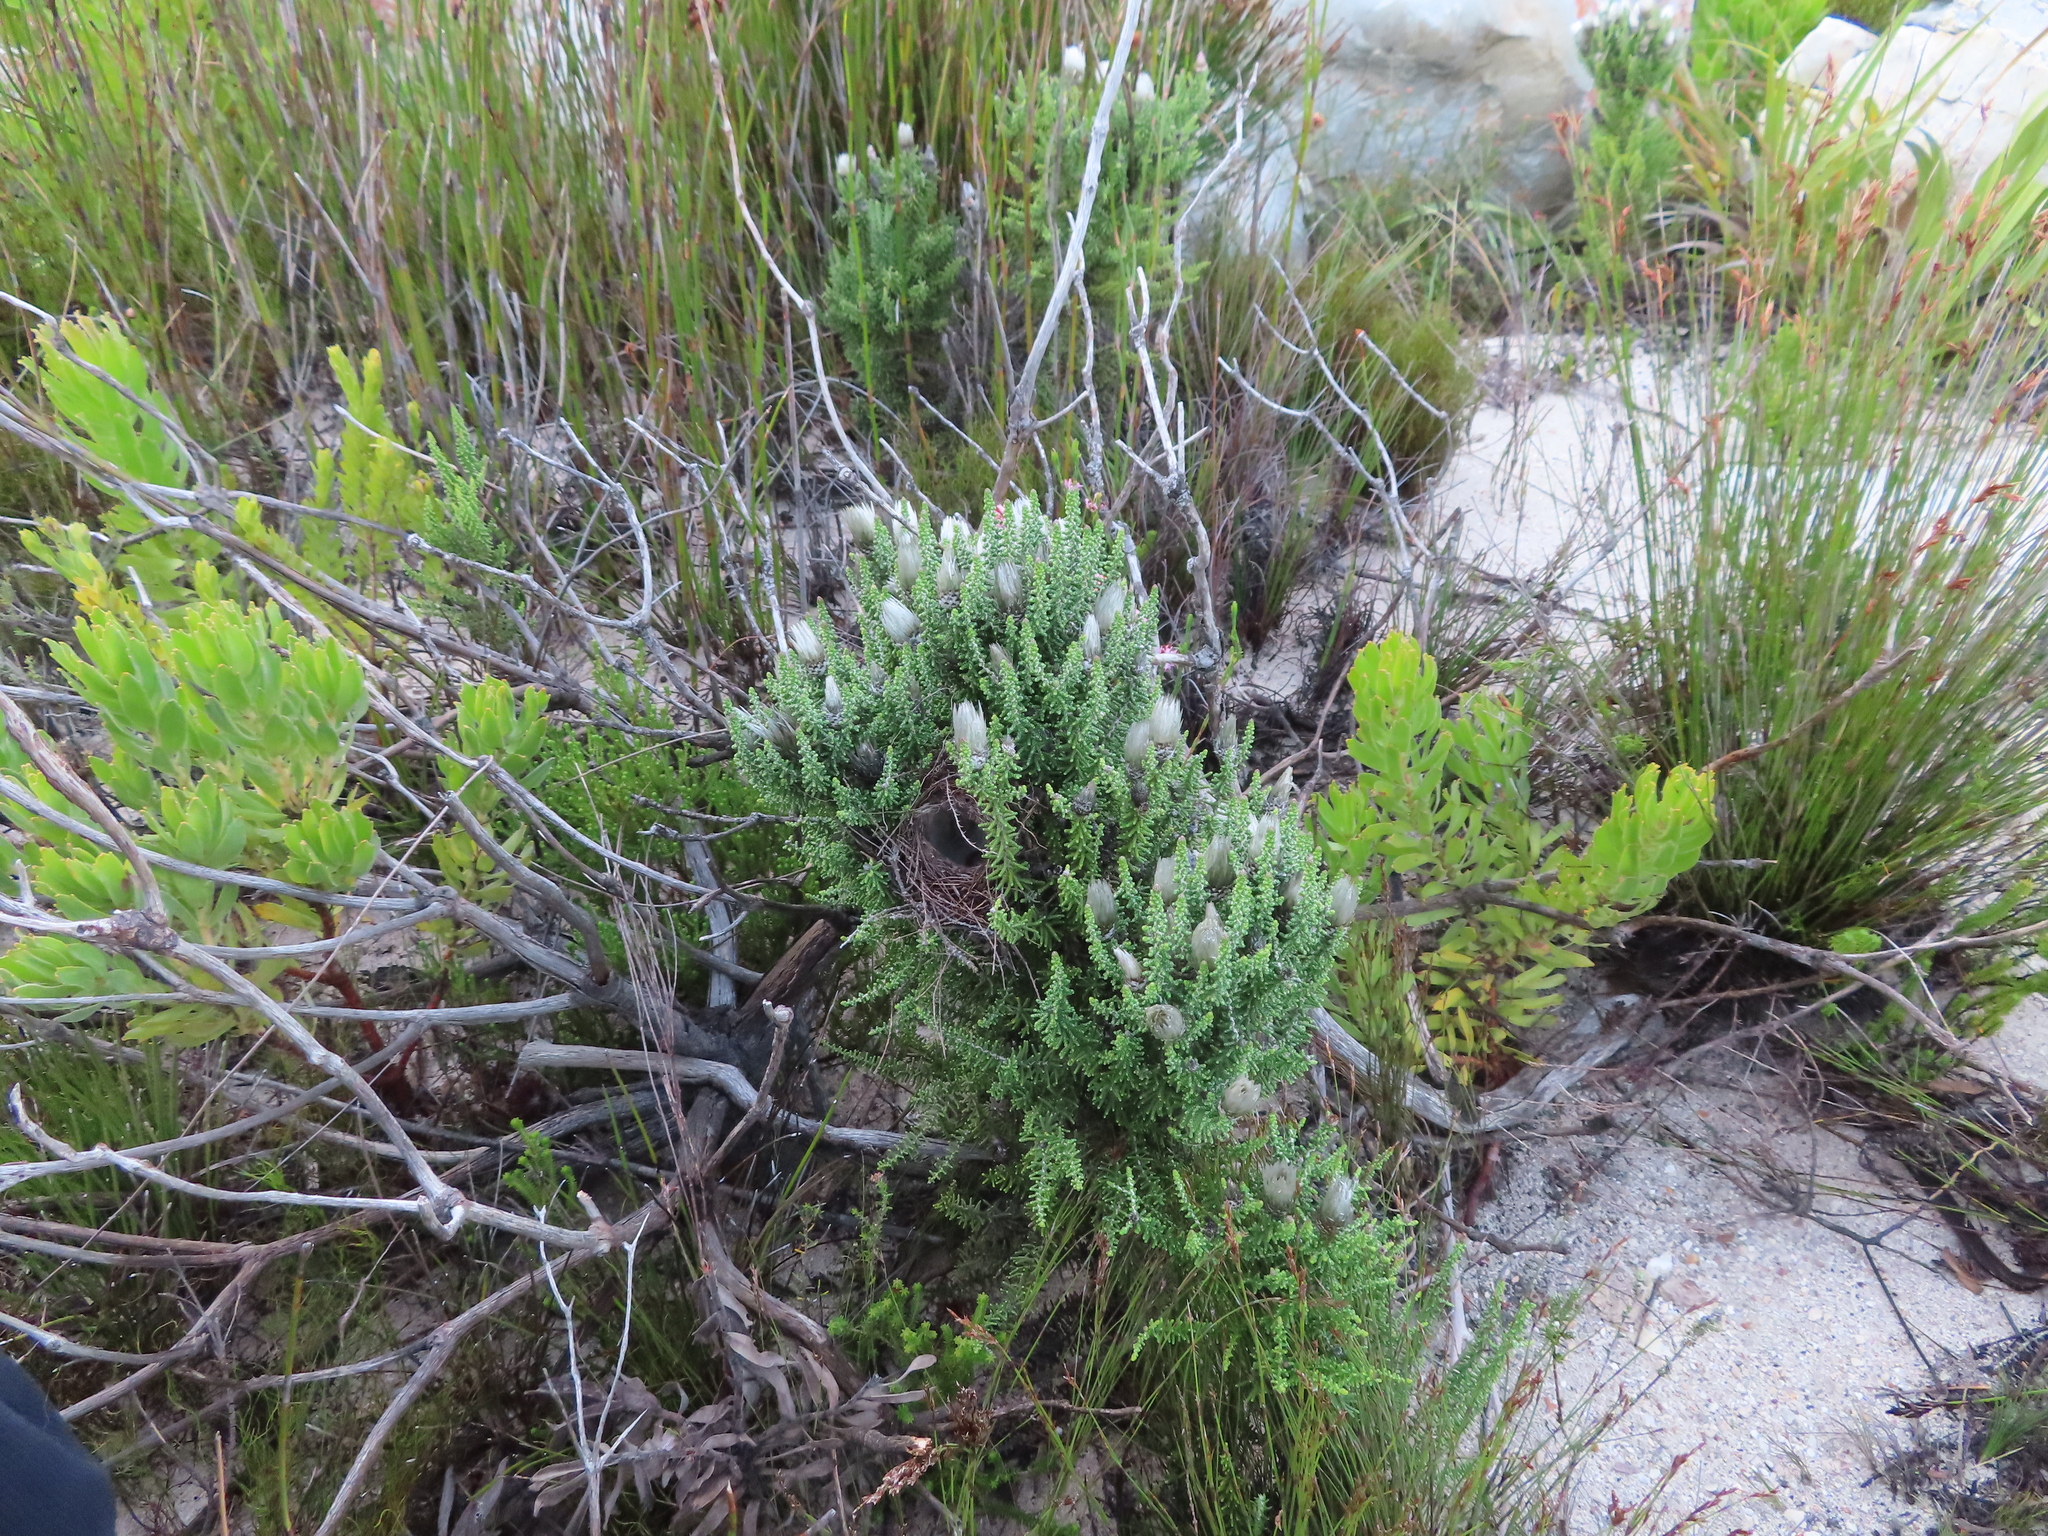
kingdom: Plantae
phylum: Tracheophyta
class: Magnoliopsida
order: Asterales
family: Asteraceae
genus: Phaenocoma
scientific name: Phaenocoma prolifera
